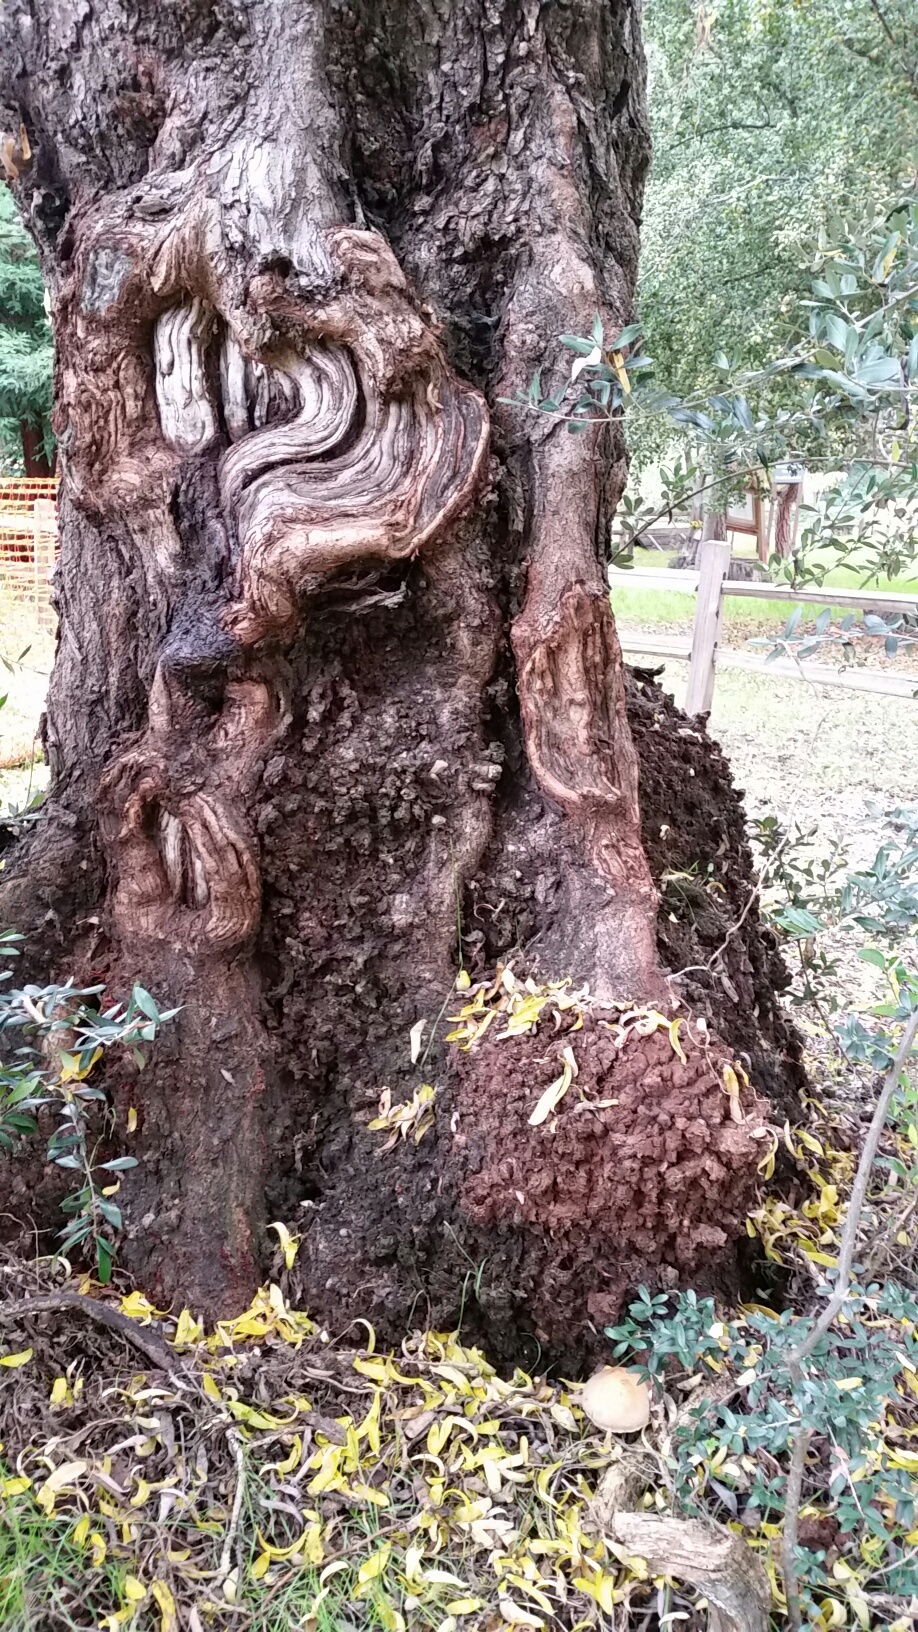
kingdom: Fungi
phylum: Basidiomycota
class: Agaricomycetes
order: Agaricales
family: Psathyrellaceae
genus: Lacrymaria
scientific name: Lacrymaria lacrymabunda
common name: Weeping widow
